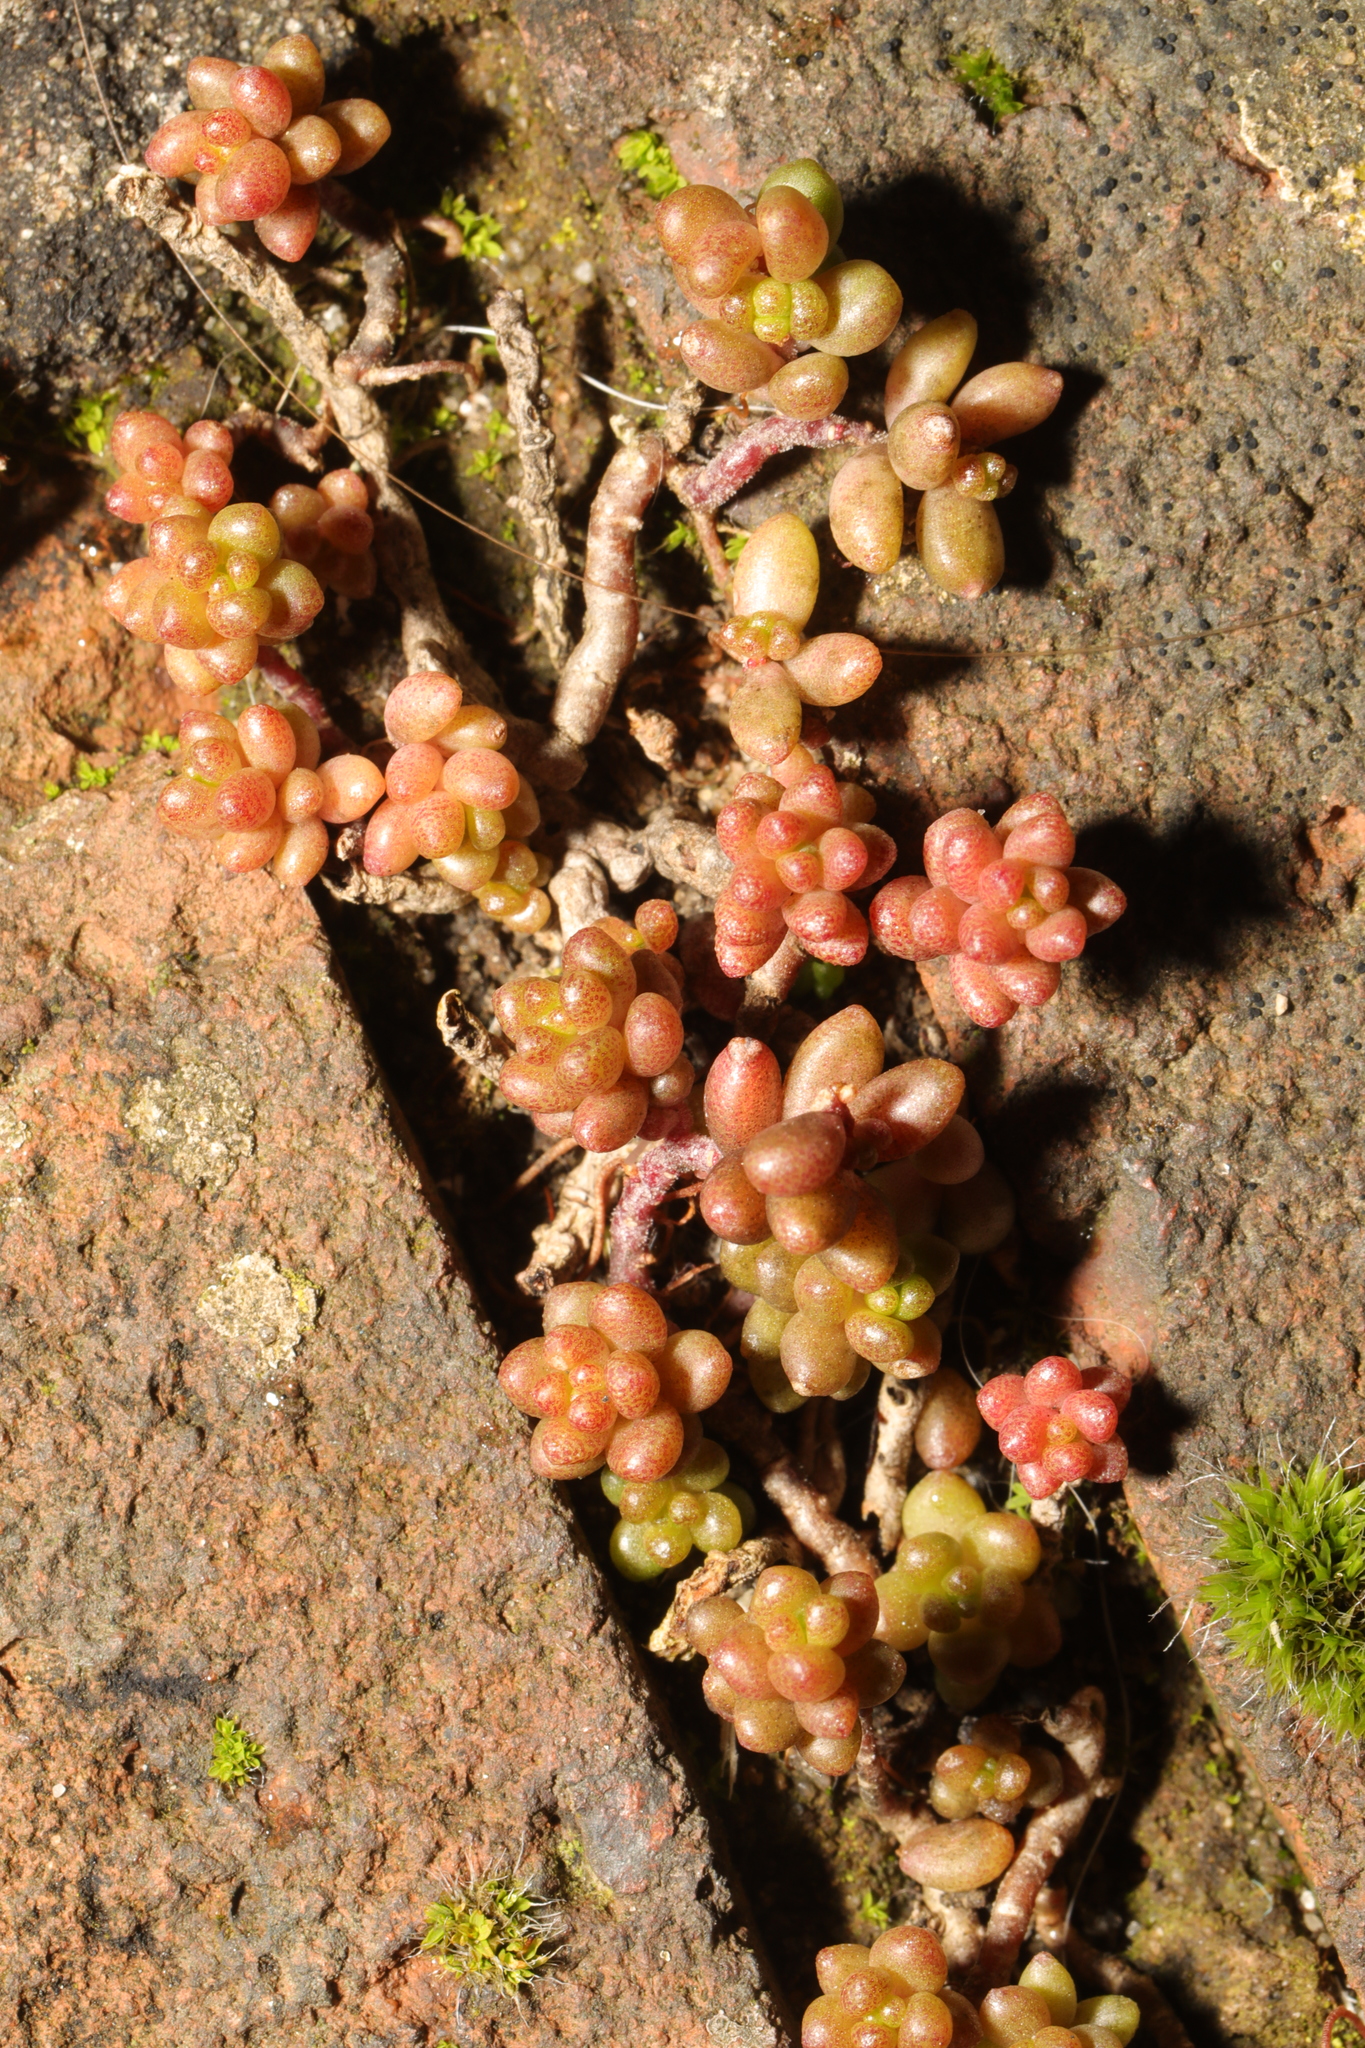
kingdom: Plantae
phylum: Tracheophyta
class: Magnoliopsida
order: Saxifragales
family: Crassulaceae
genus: Sedum
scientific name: Sedum album
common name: White stonecrop
